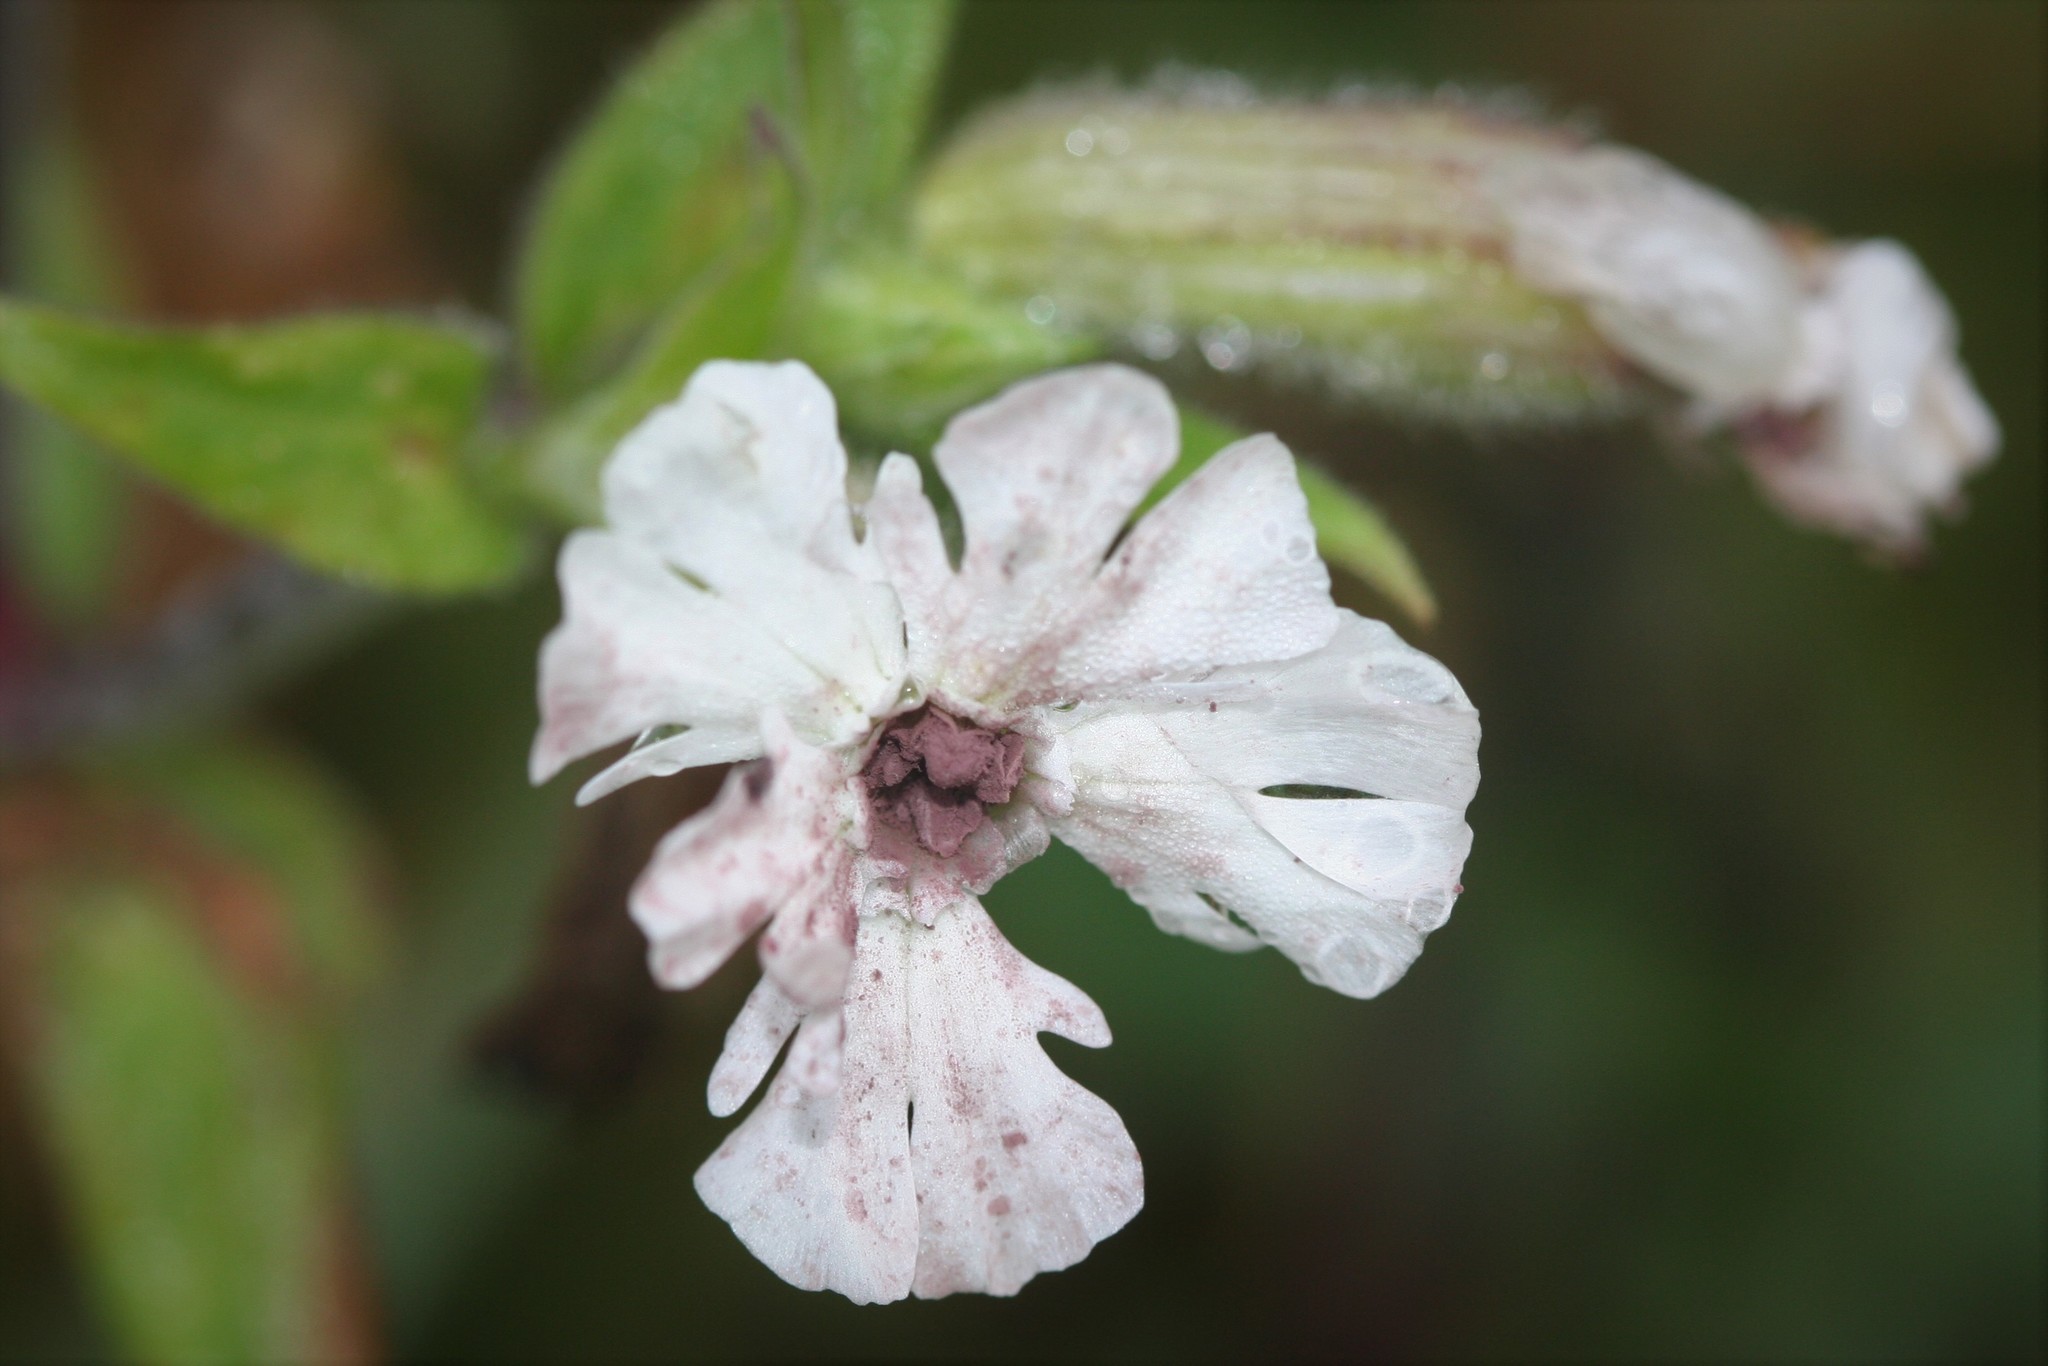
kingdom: Fungi
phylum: Basidiomycota
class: Microbotryomycetes
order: Microbotryales
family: Microbotryaceae
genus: Microbotryum
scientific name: Microbotryum lychnidis-dioicae
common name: Campion anther smut
